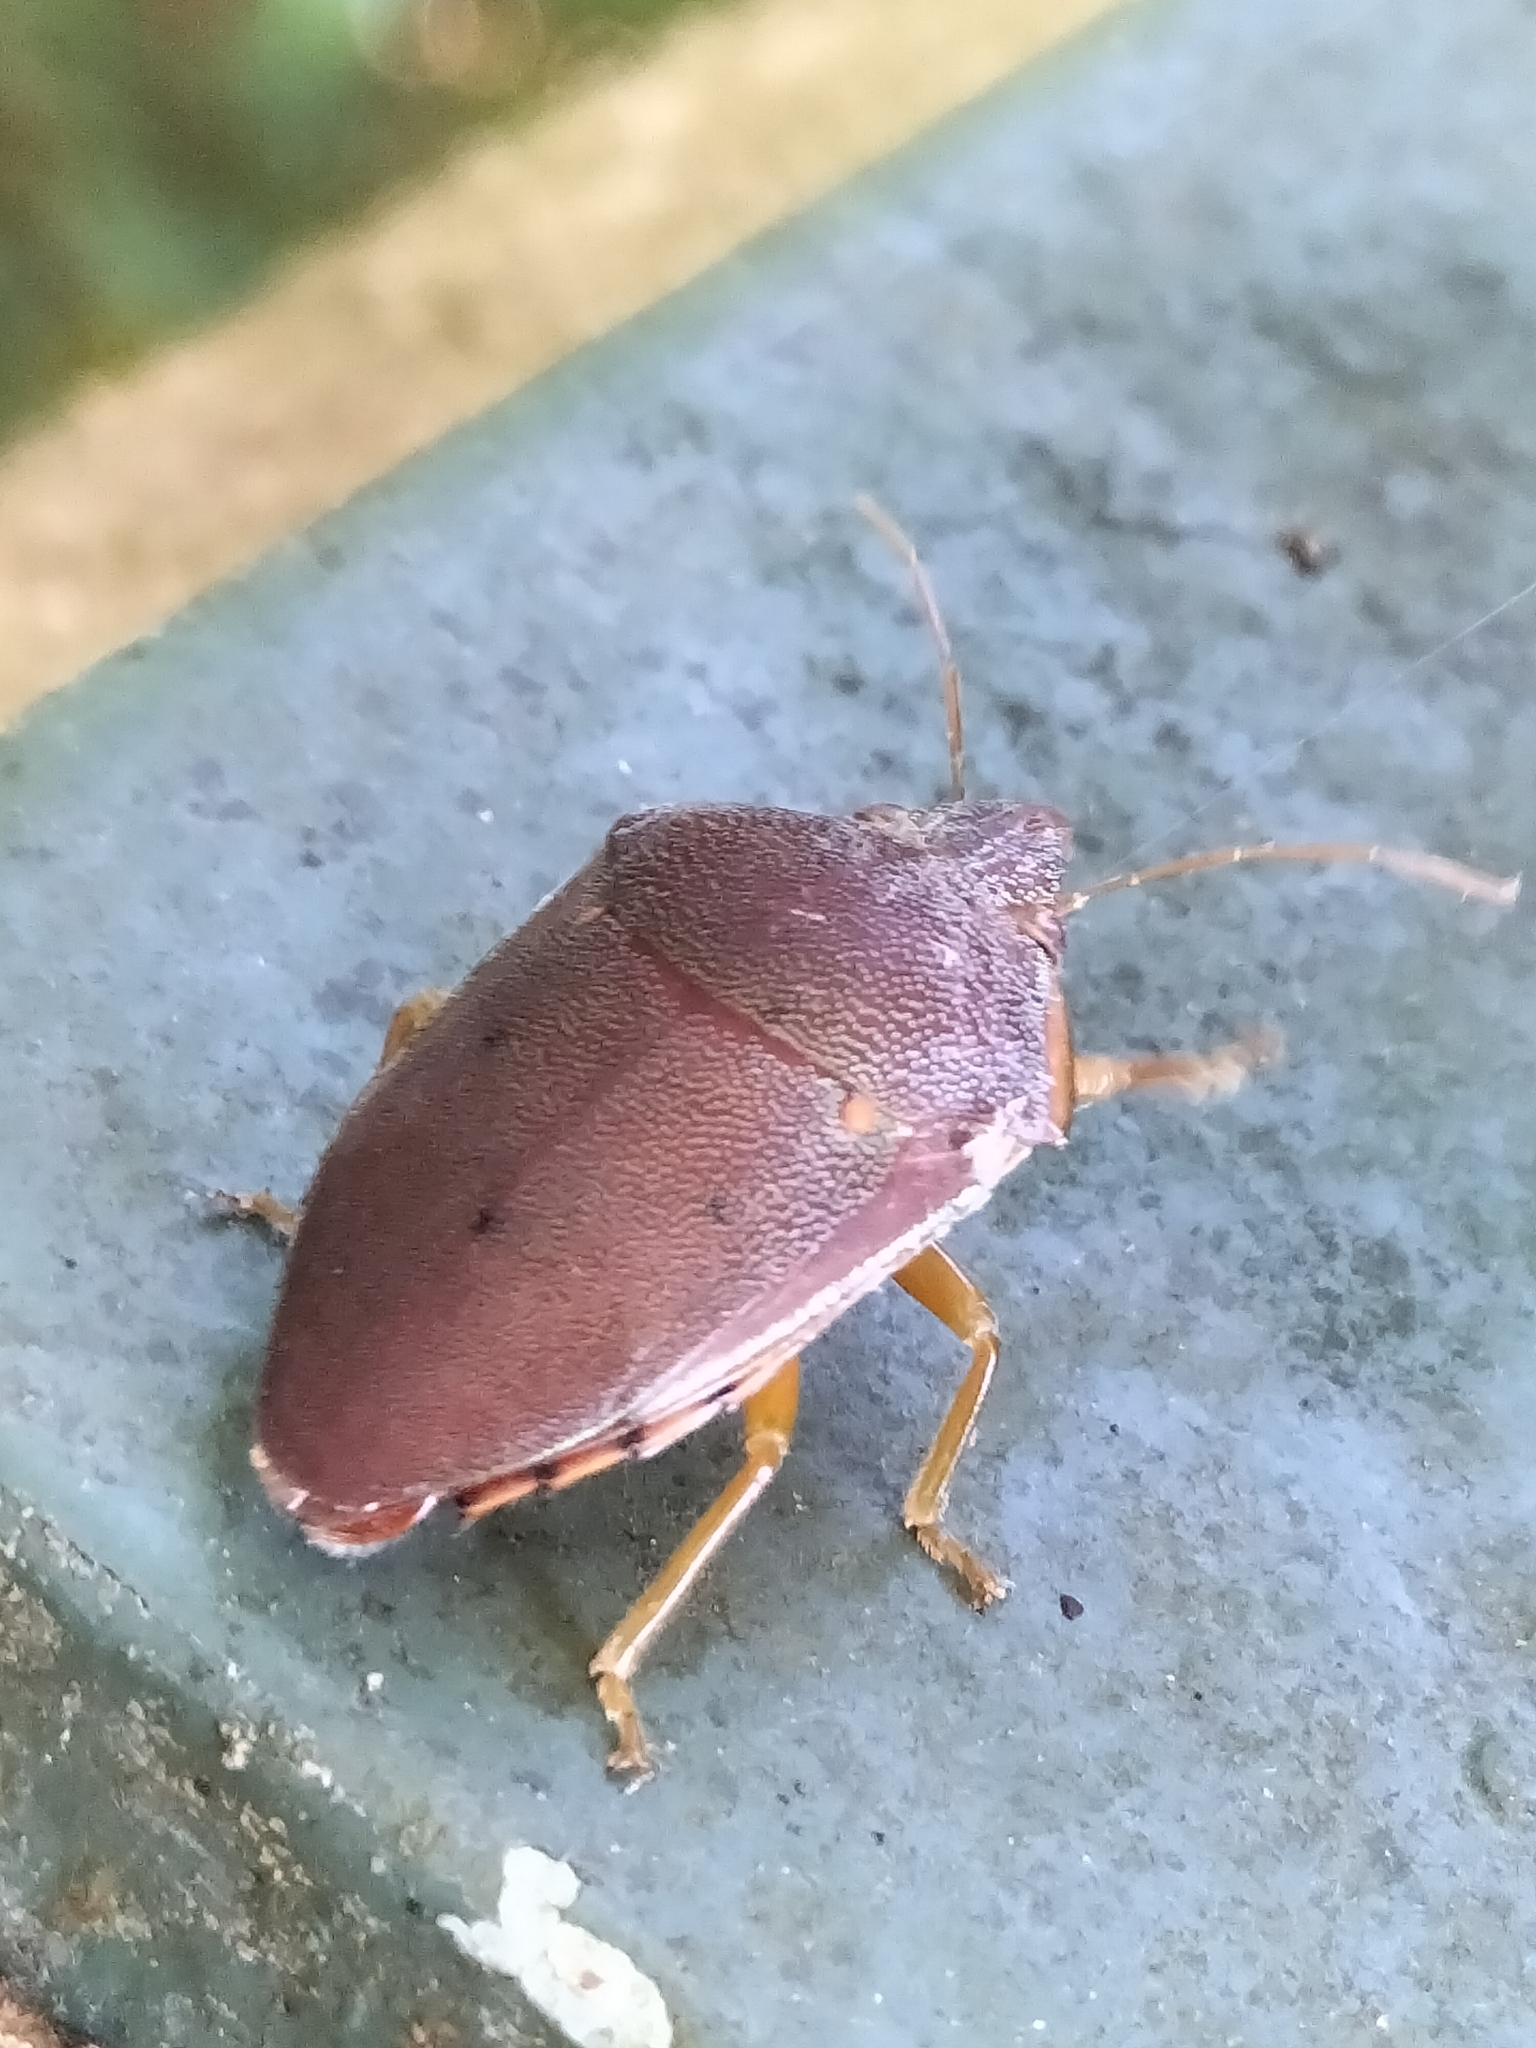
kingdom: Animalia
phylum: Arthropoda
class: Insecta
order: Hemiptera
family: Pentatomidae
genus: Coleotichus
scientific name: Coleotichus excellens
